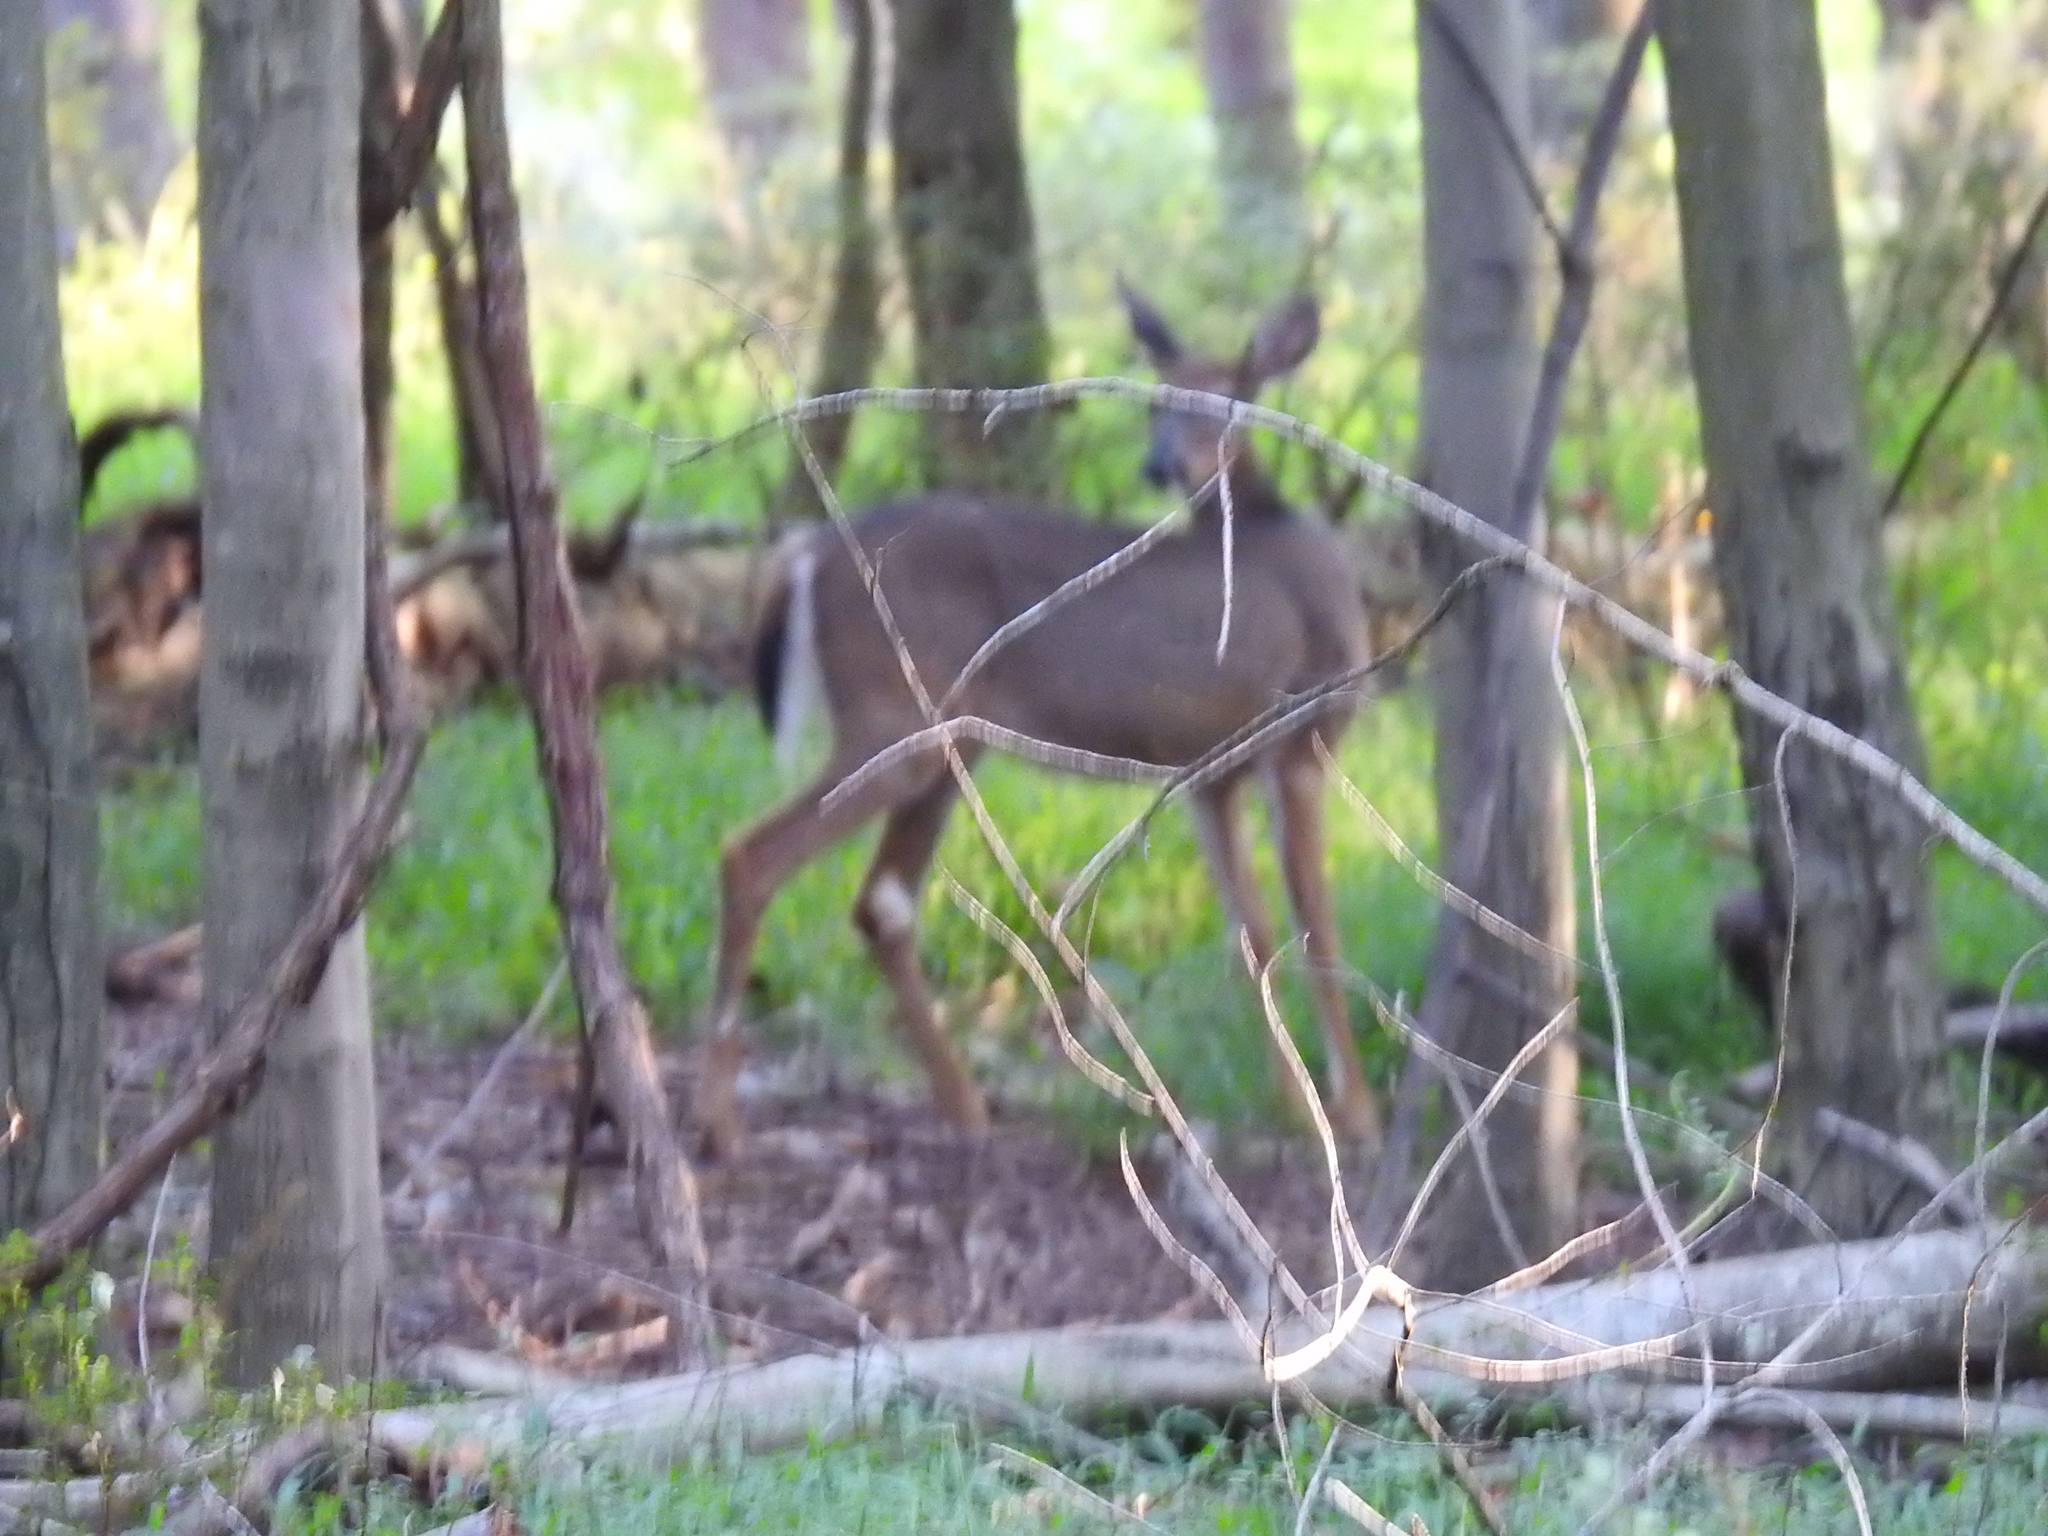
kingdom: Animalia
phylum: Chordata
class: Mammalia
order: Artiodactyla
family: Cervidae
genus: Odocoileus
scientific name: Odocoileus virginianus
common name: White-tailed deer
